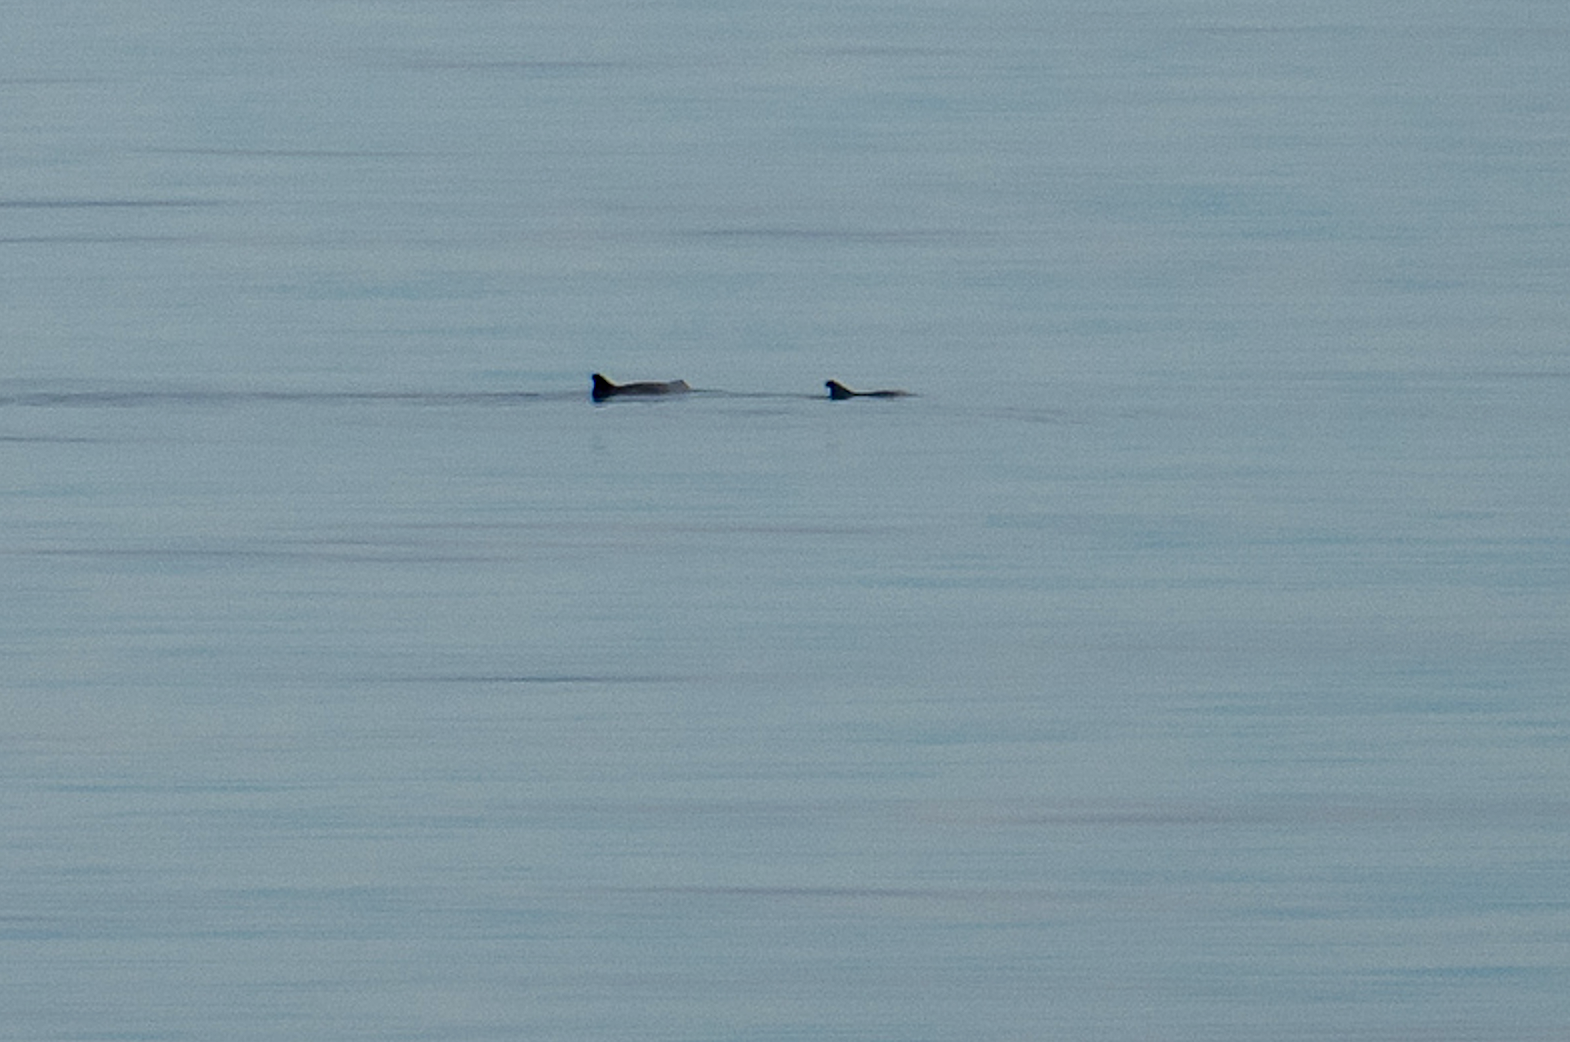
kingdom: Animalia
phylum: Chordata
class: Mammalia
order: Cetacea
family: Kogiidae
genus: Kogia
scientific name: Kogia sima
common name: Dwarf sperm whale
